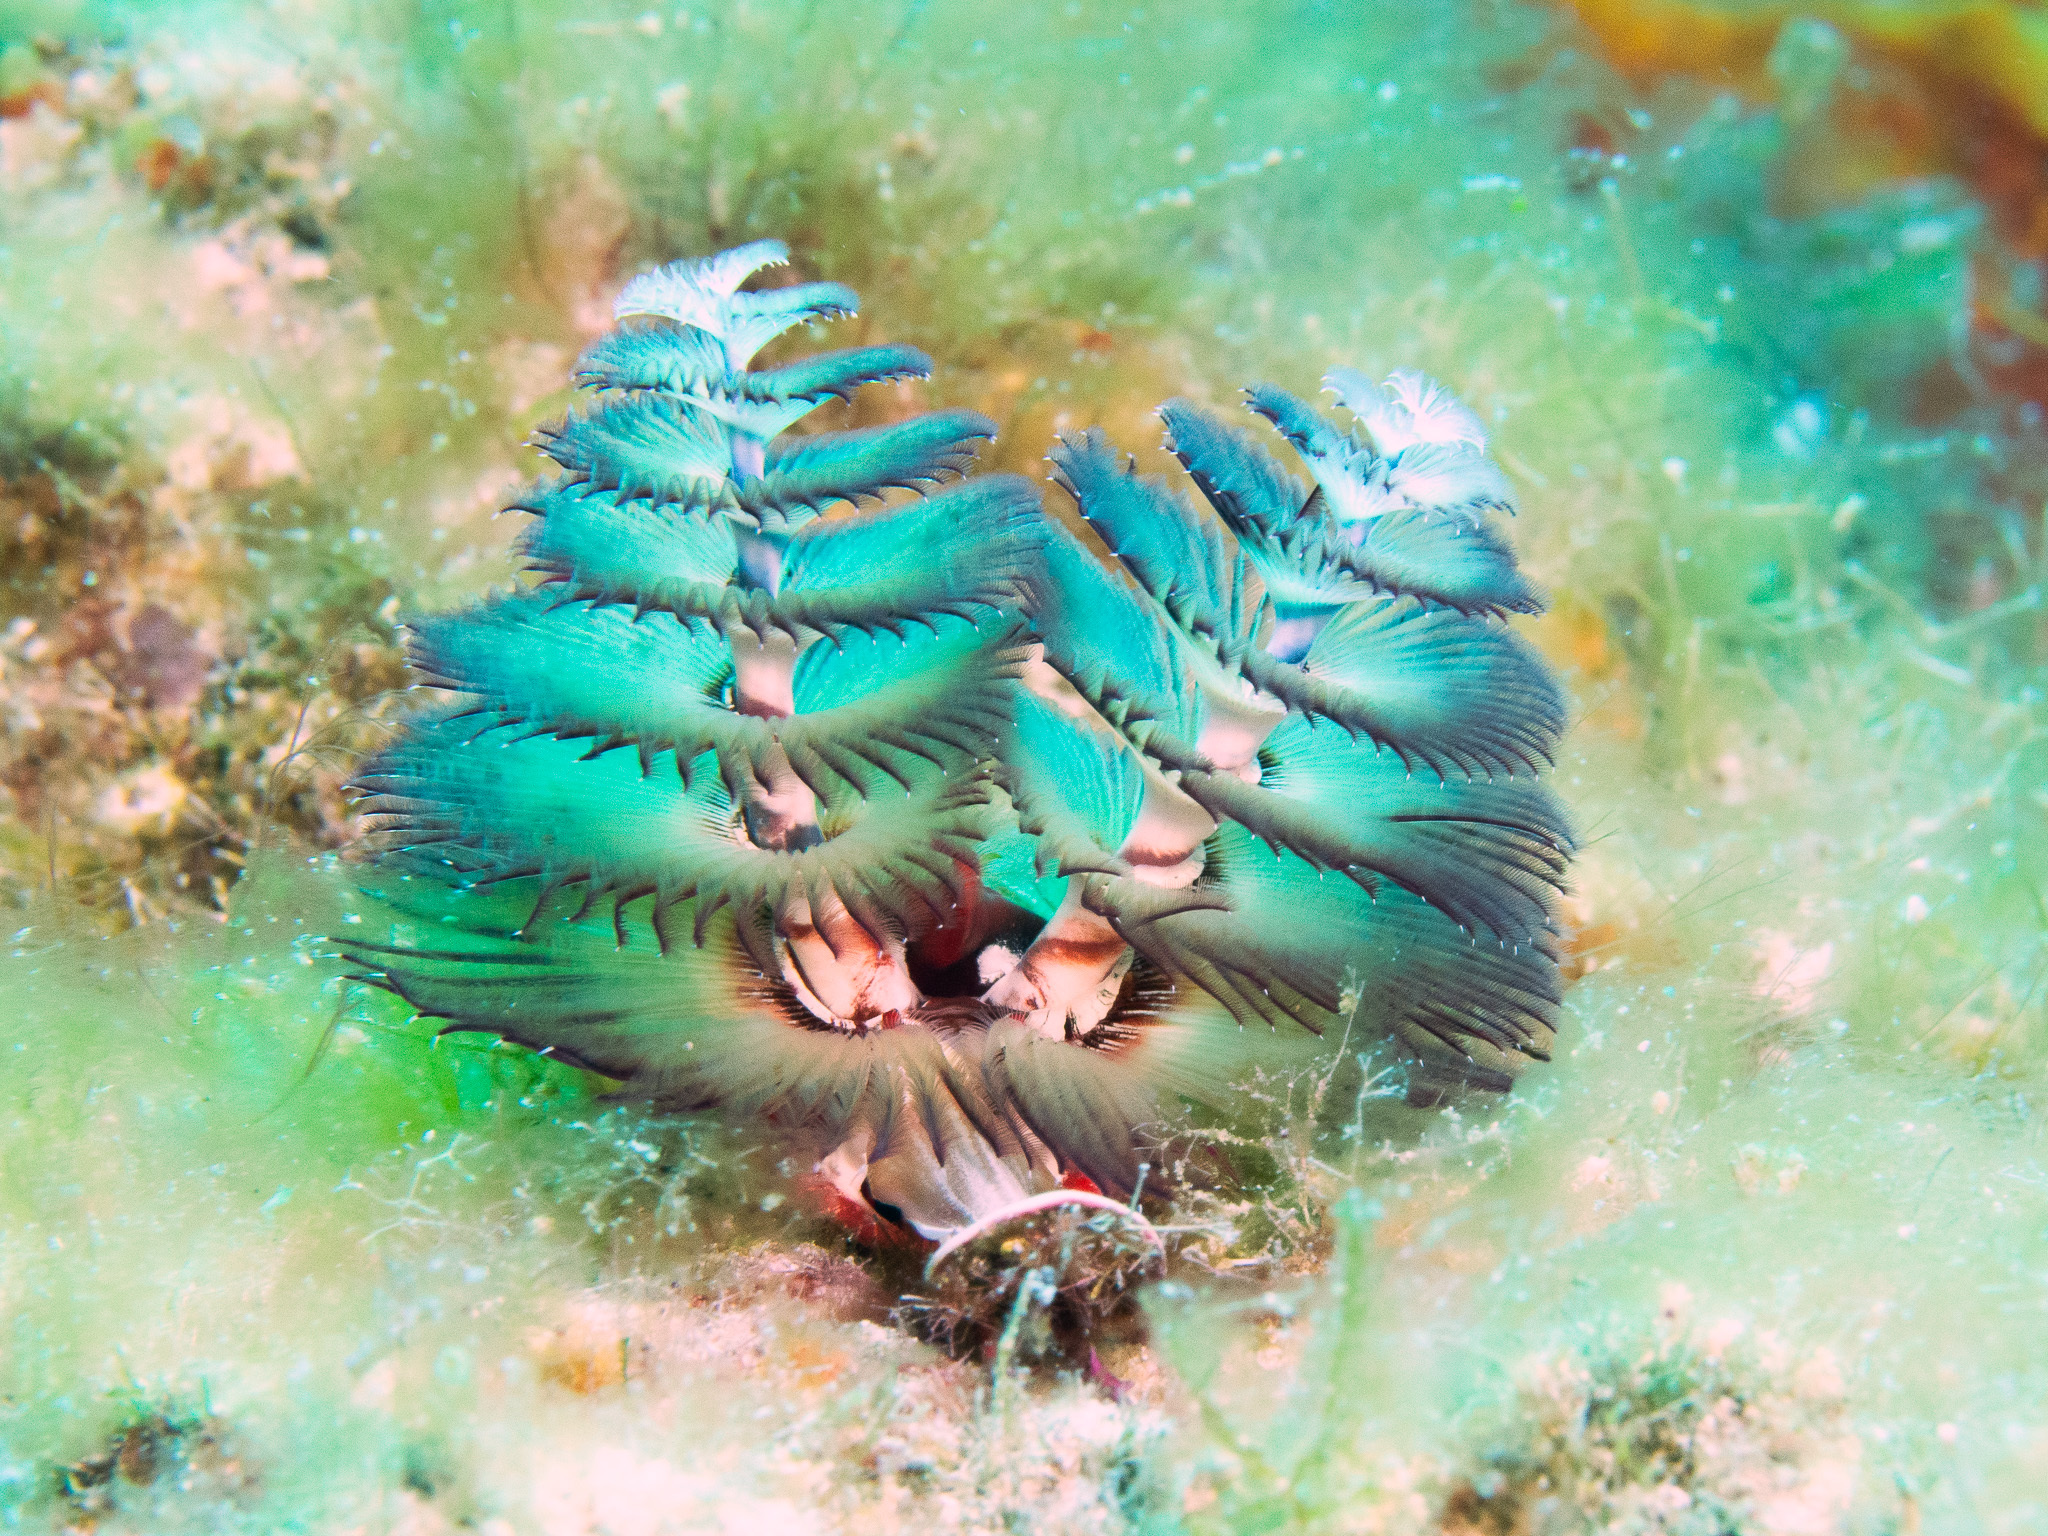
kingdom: Animalia
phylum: Annelida
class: Polychaeta
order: Sabellida
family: Serpulidae
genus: Spirobranchus
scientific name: Spirobranchus giganteus
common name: Christmas tree worm
